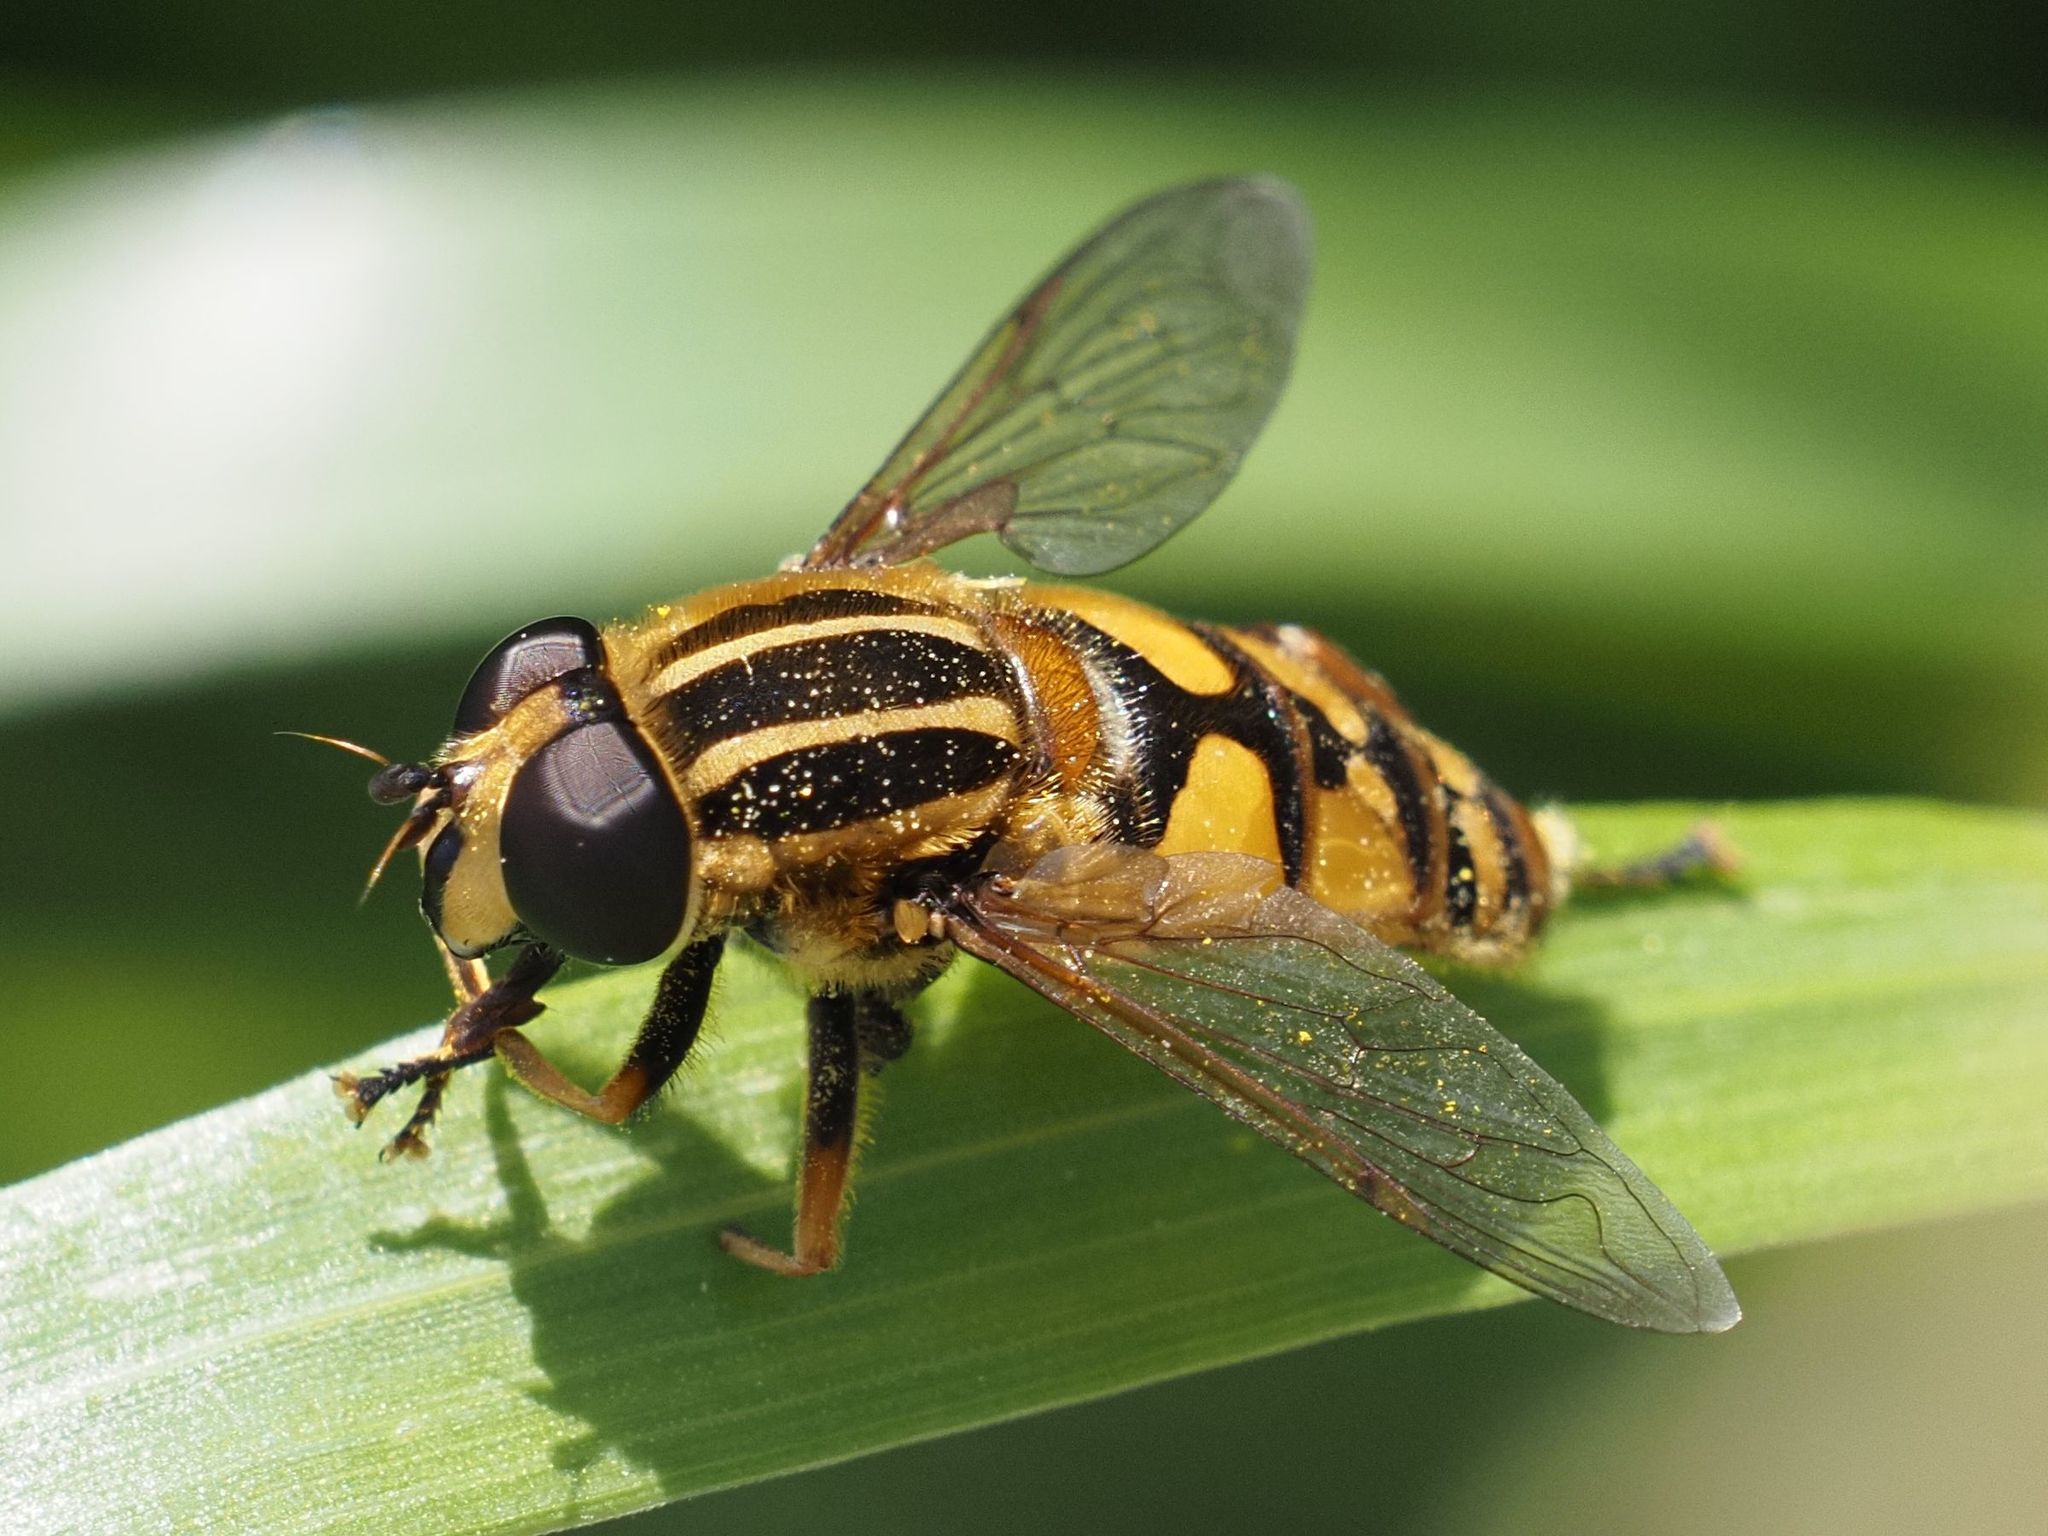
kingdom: Animalia
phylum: Arthropoda
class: Insecta
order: Diptera
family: Syrphidae
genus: Helophilus
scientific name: Helophilus pendulus
